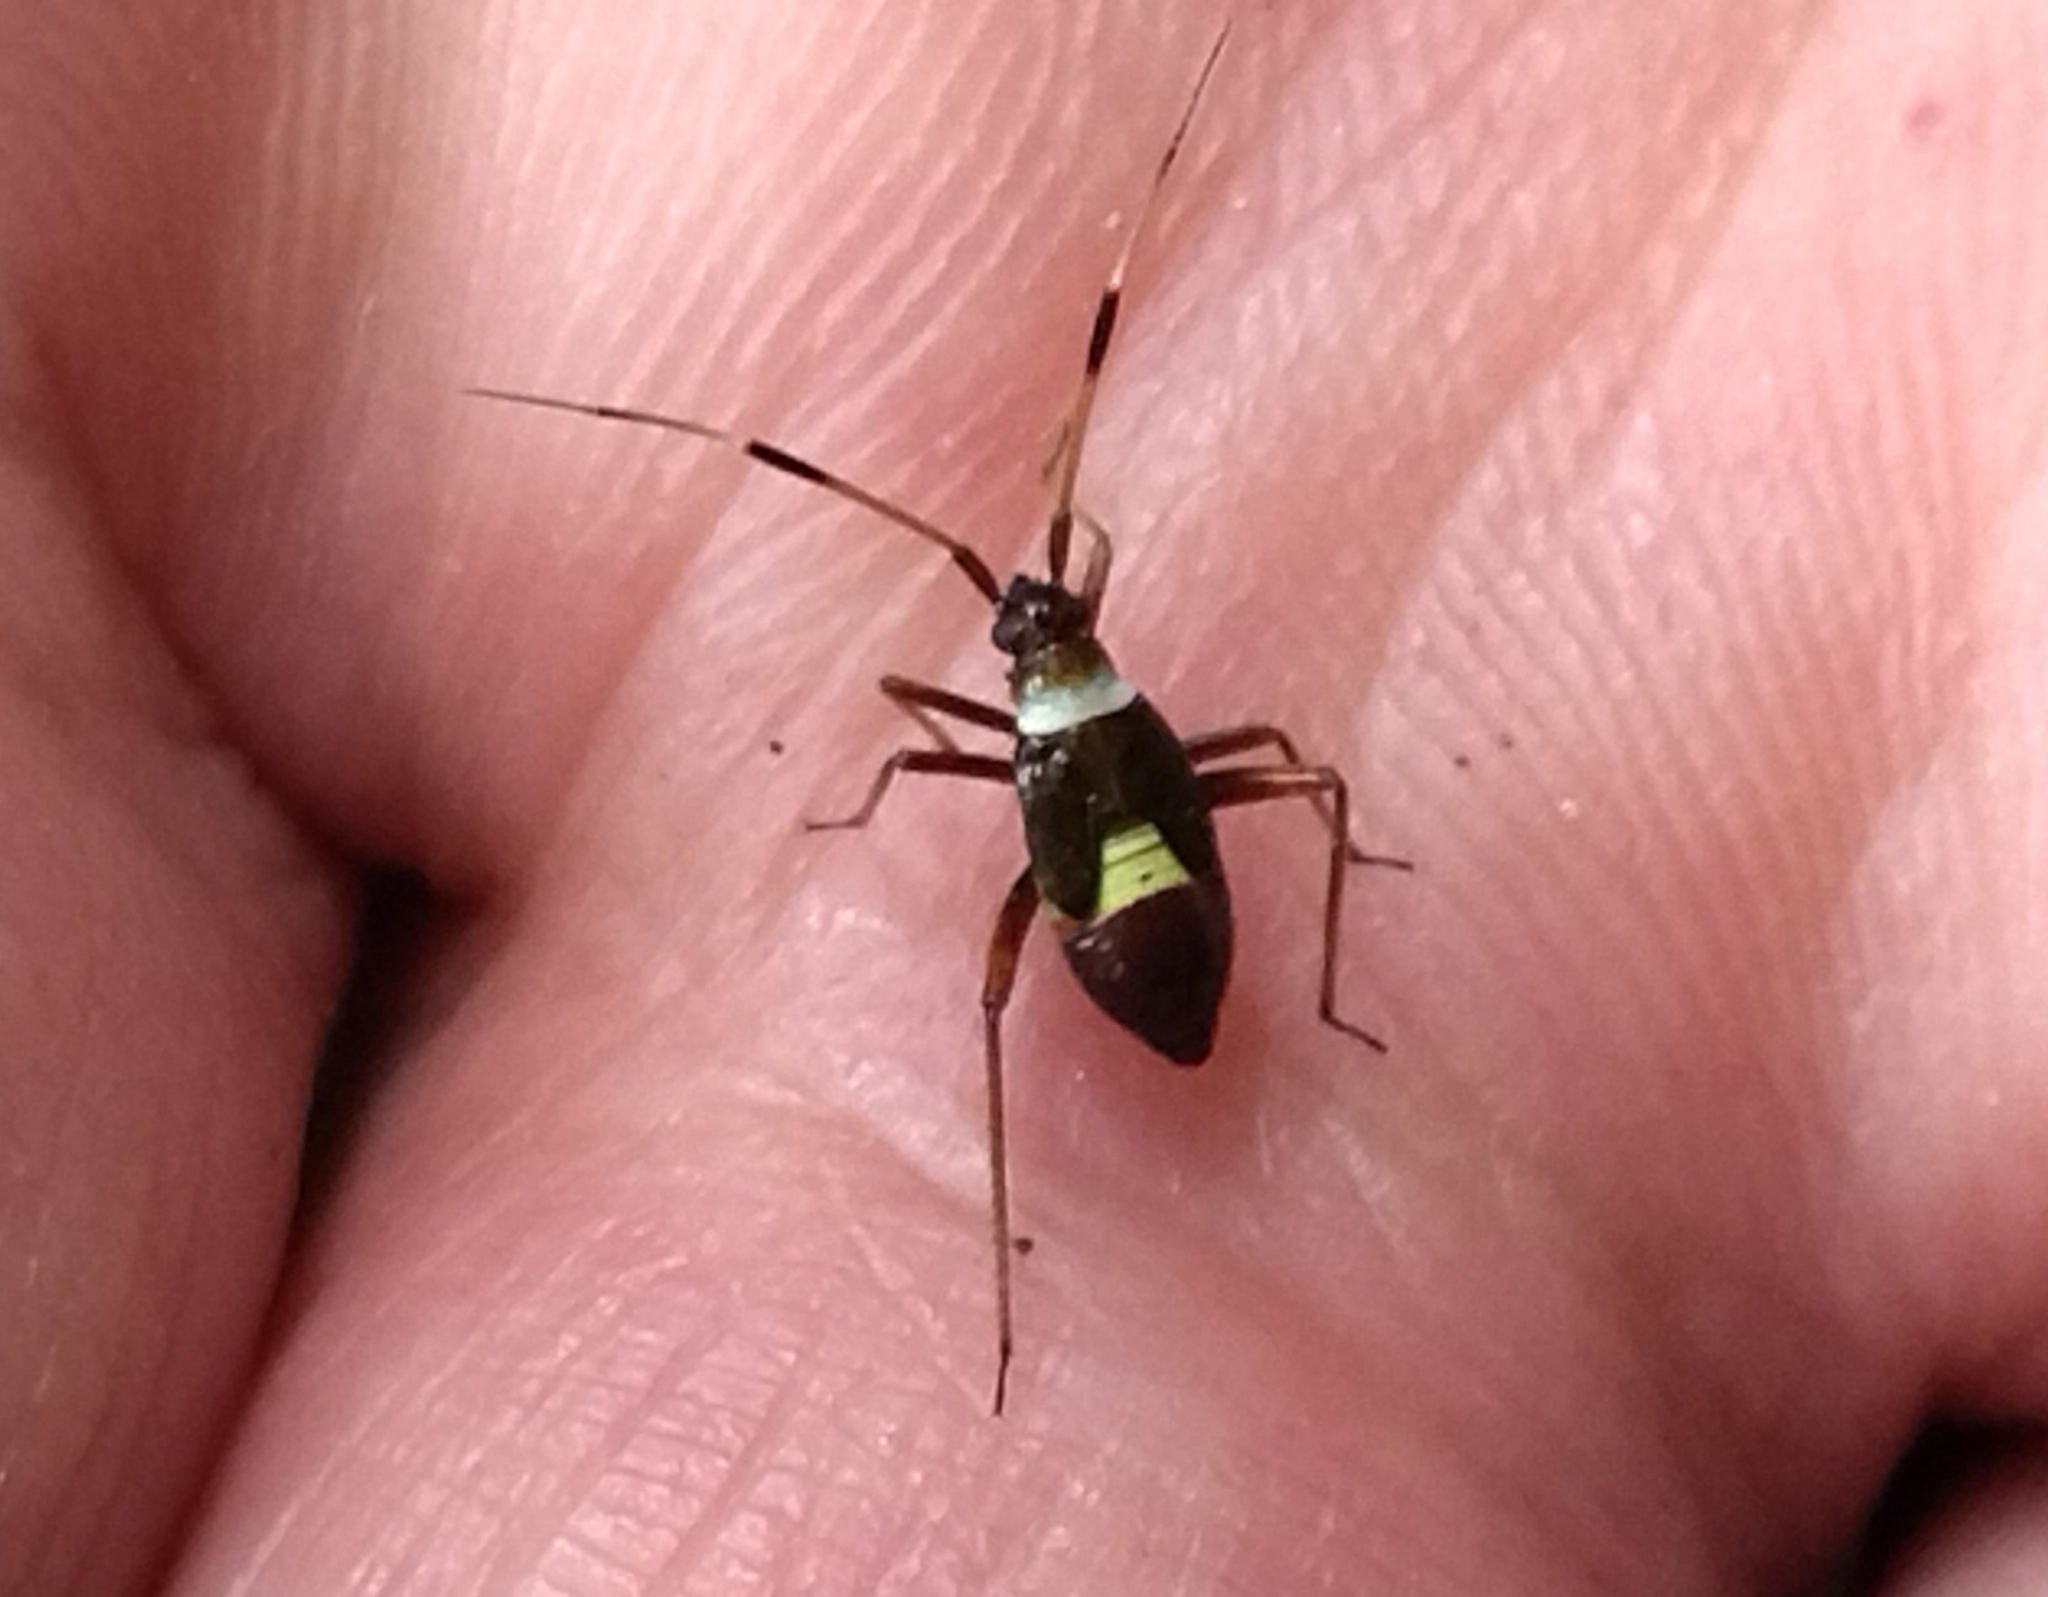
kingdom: Animalia
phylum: Arthropoda
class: Insecta
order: Hemiptera
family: Miridae
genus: Closterotomus
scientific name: Closterotomus biclavatus
